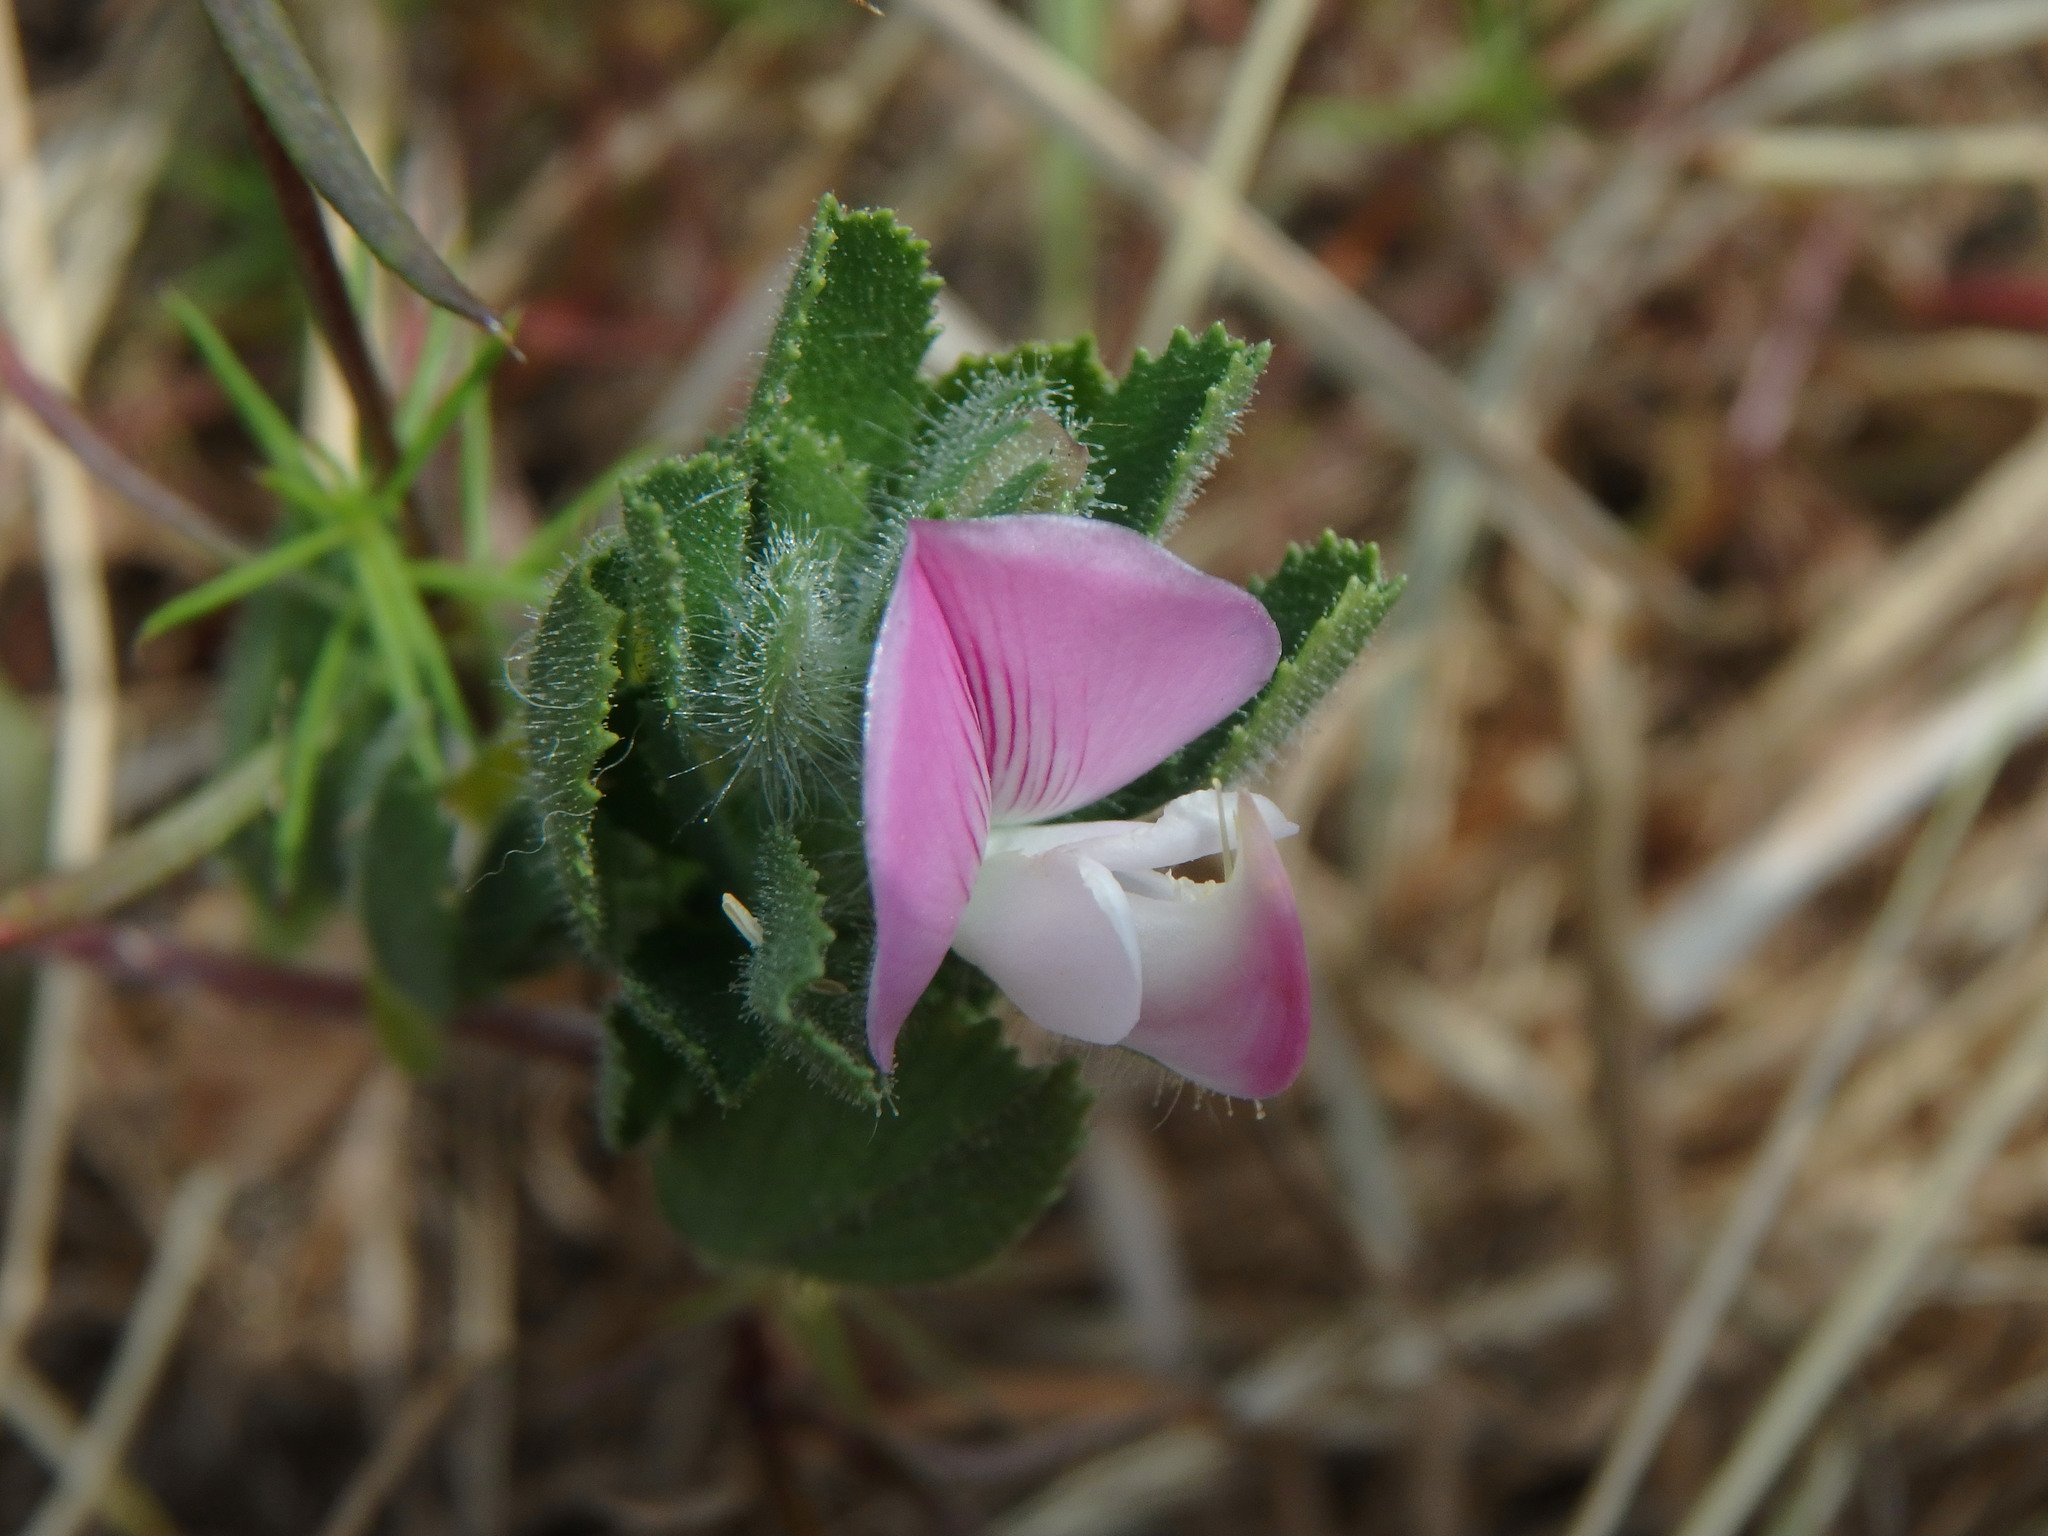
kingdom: Plantae
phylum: Tracheophyta
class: Magnoliopsida
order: Fabales
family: Fabaceae
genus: Ononis
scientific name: Ononis spinosa
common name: Spiny restharrow
